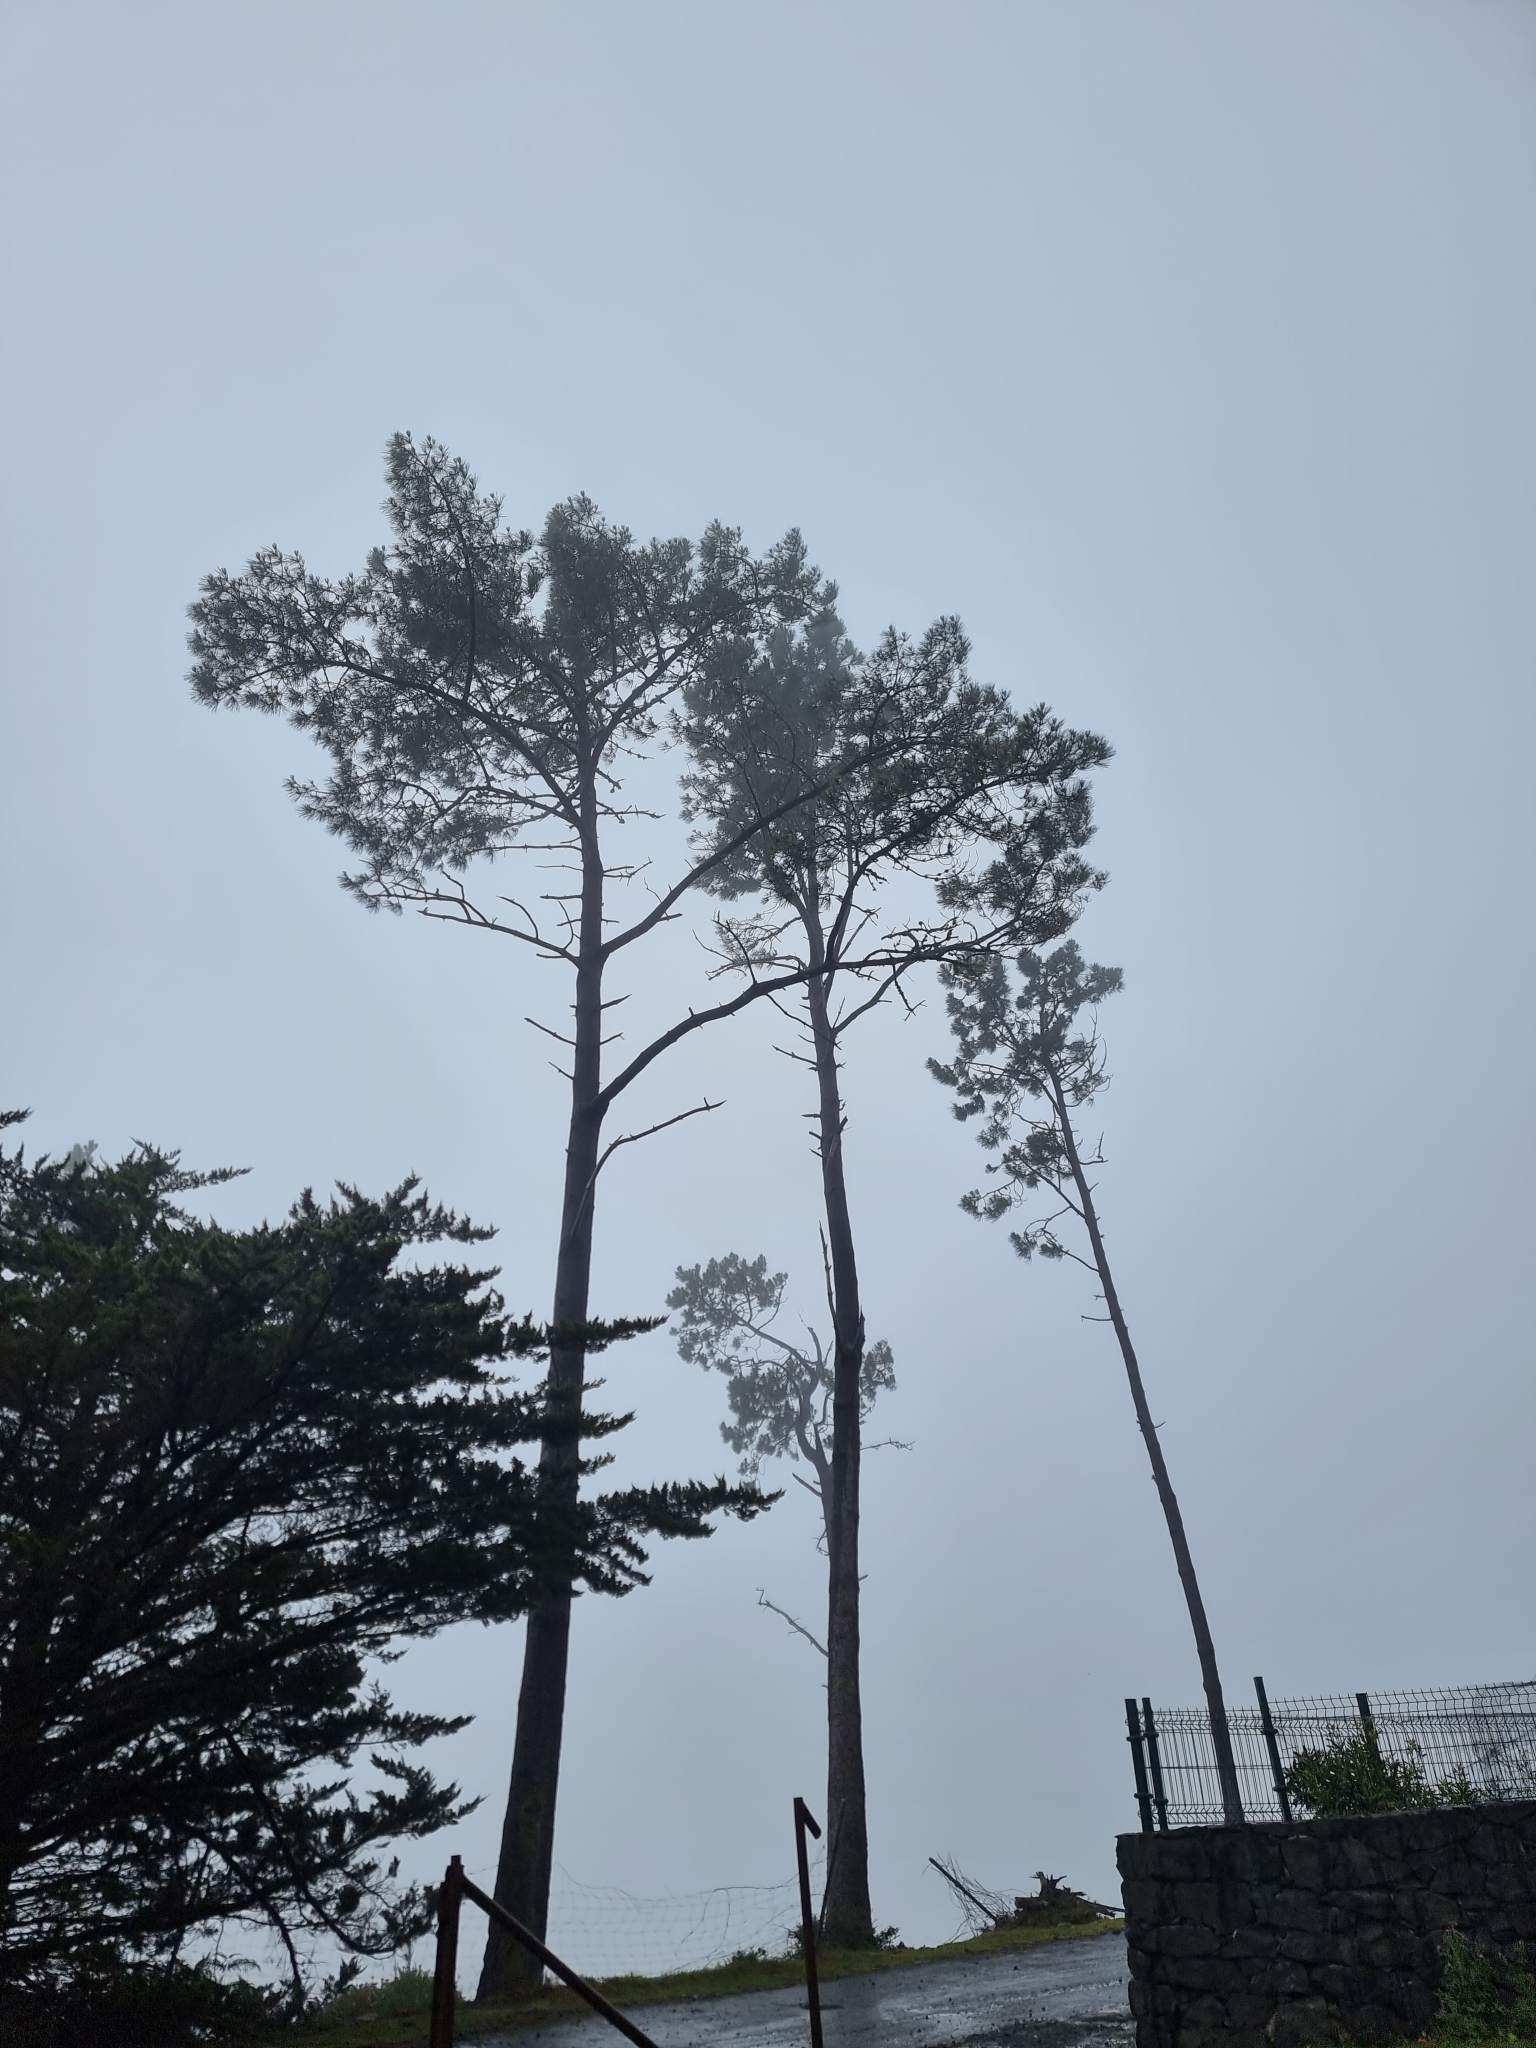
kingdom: Plantae
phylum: Tracheophyta
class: Pinopsida
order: Pinales
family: Pinaceae
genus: Pinus
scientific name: Pinus pinaster
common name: Maritime pine
